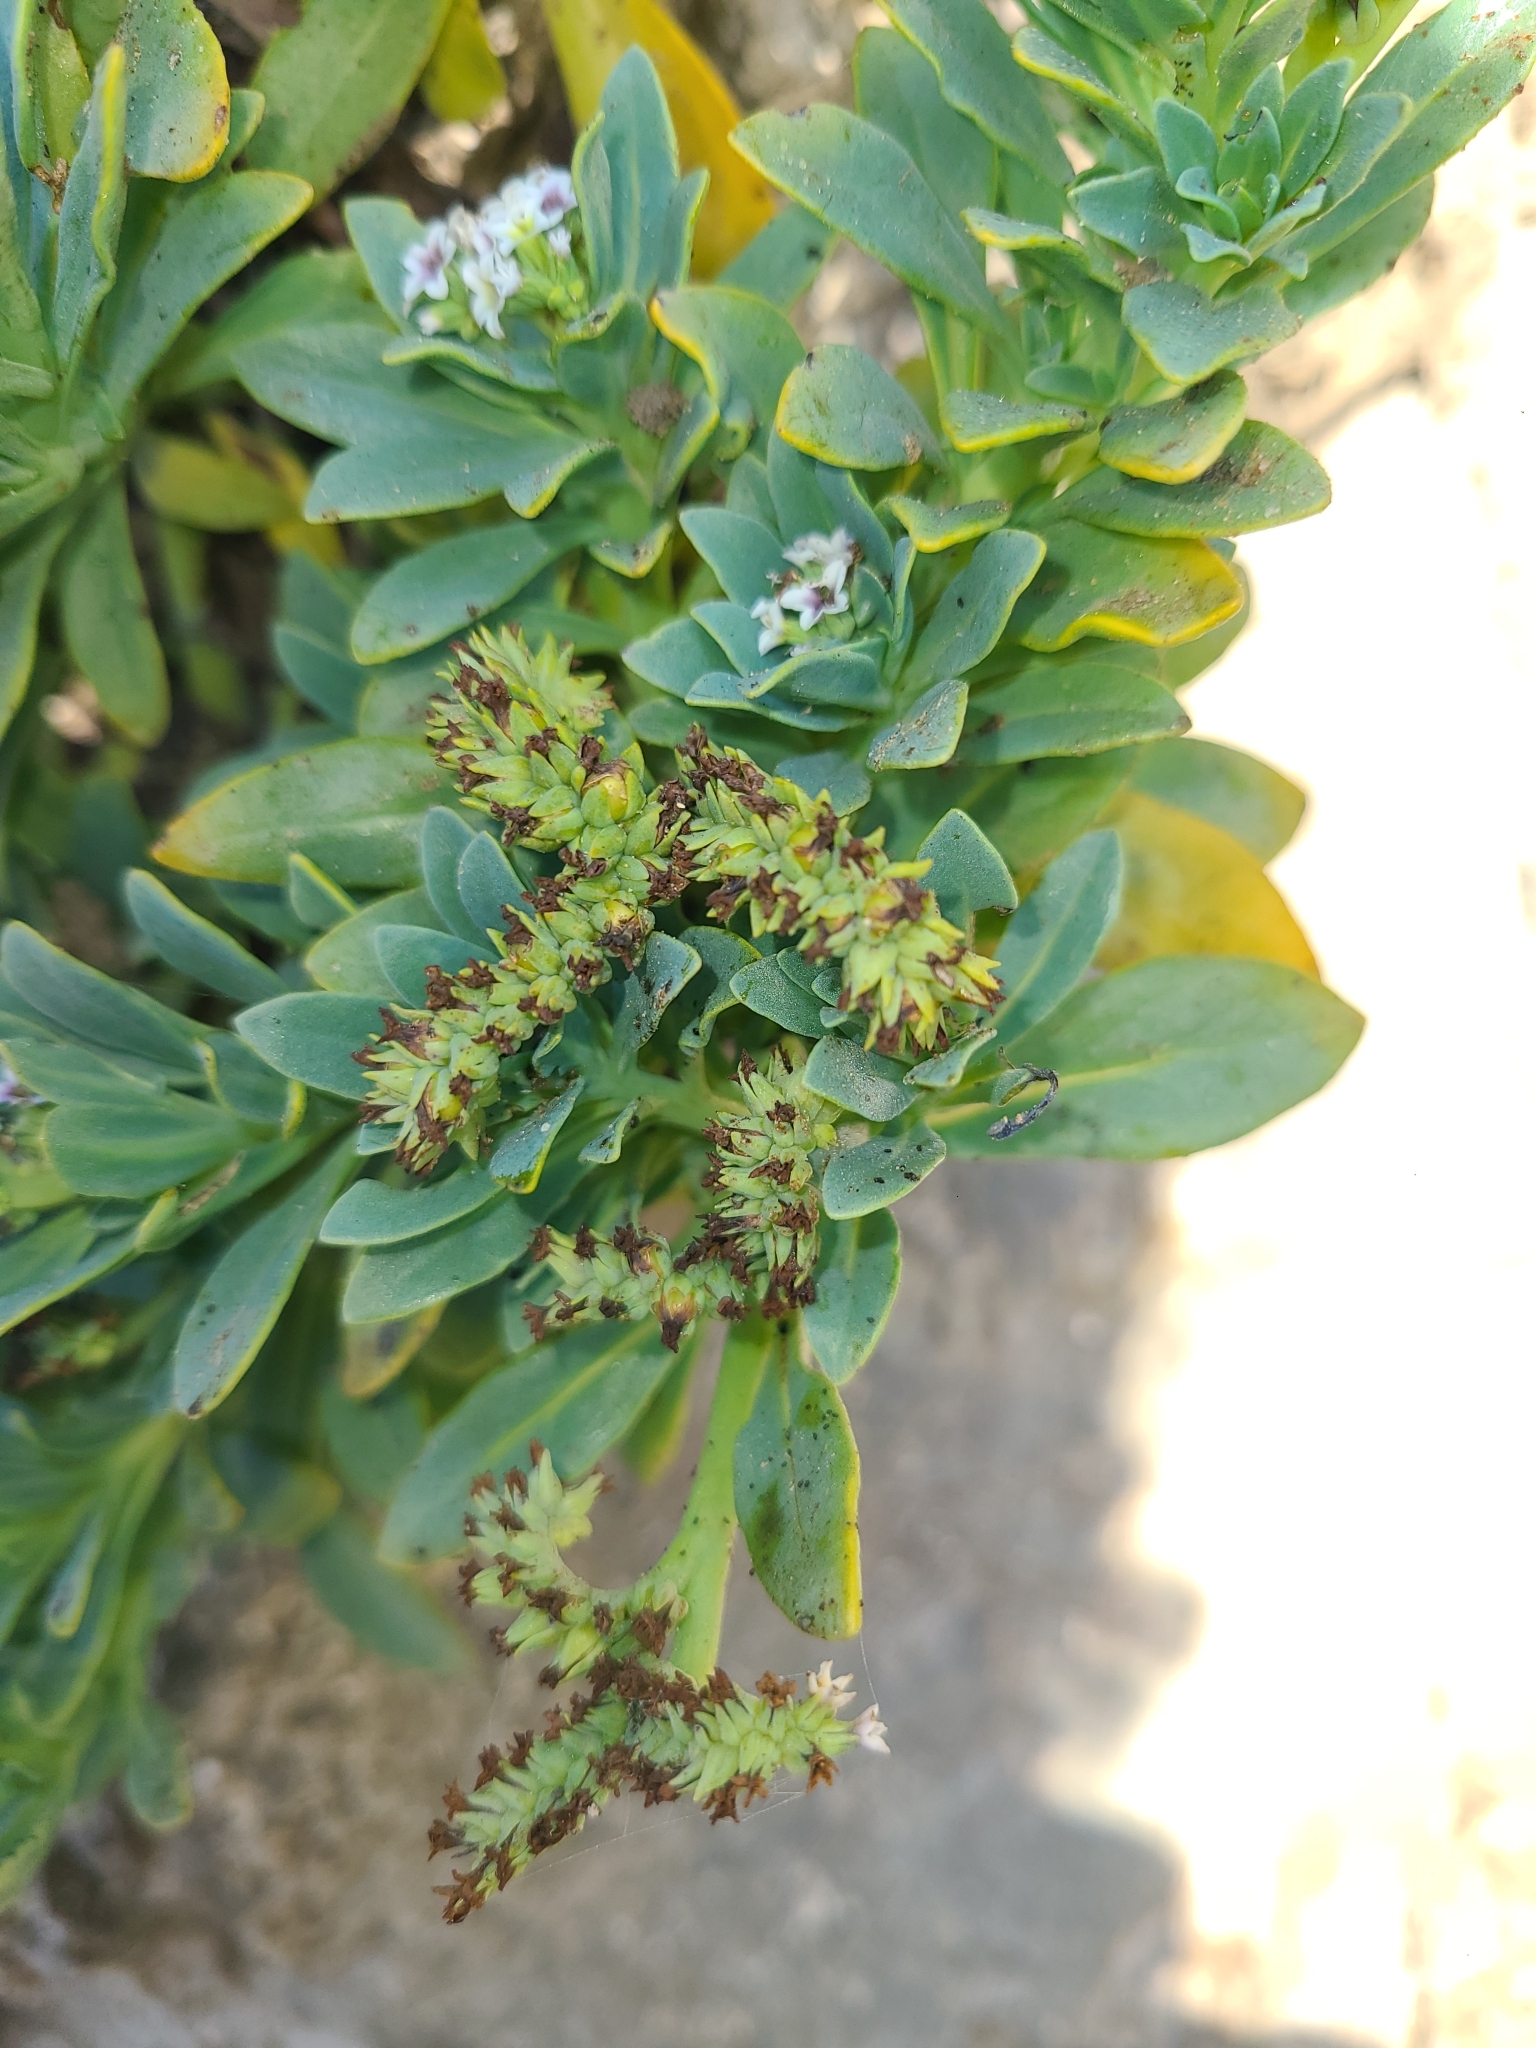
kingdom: Plantae
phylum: Tracheophyta
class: Magnoliopsida
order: Boraginales
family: Heliotropiaceae
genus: Heliotropium
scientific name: Heliotropium curassavicum
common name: Seaside heliotrope
